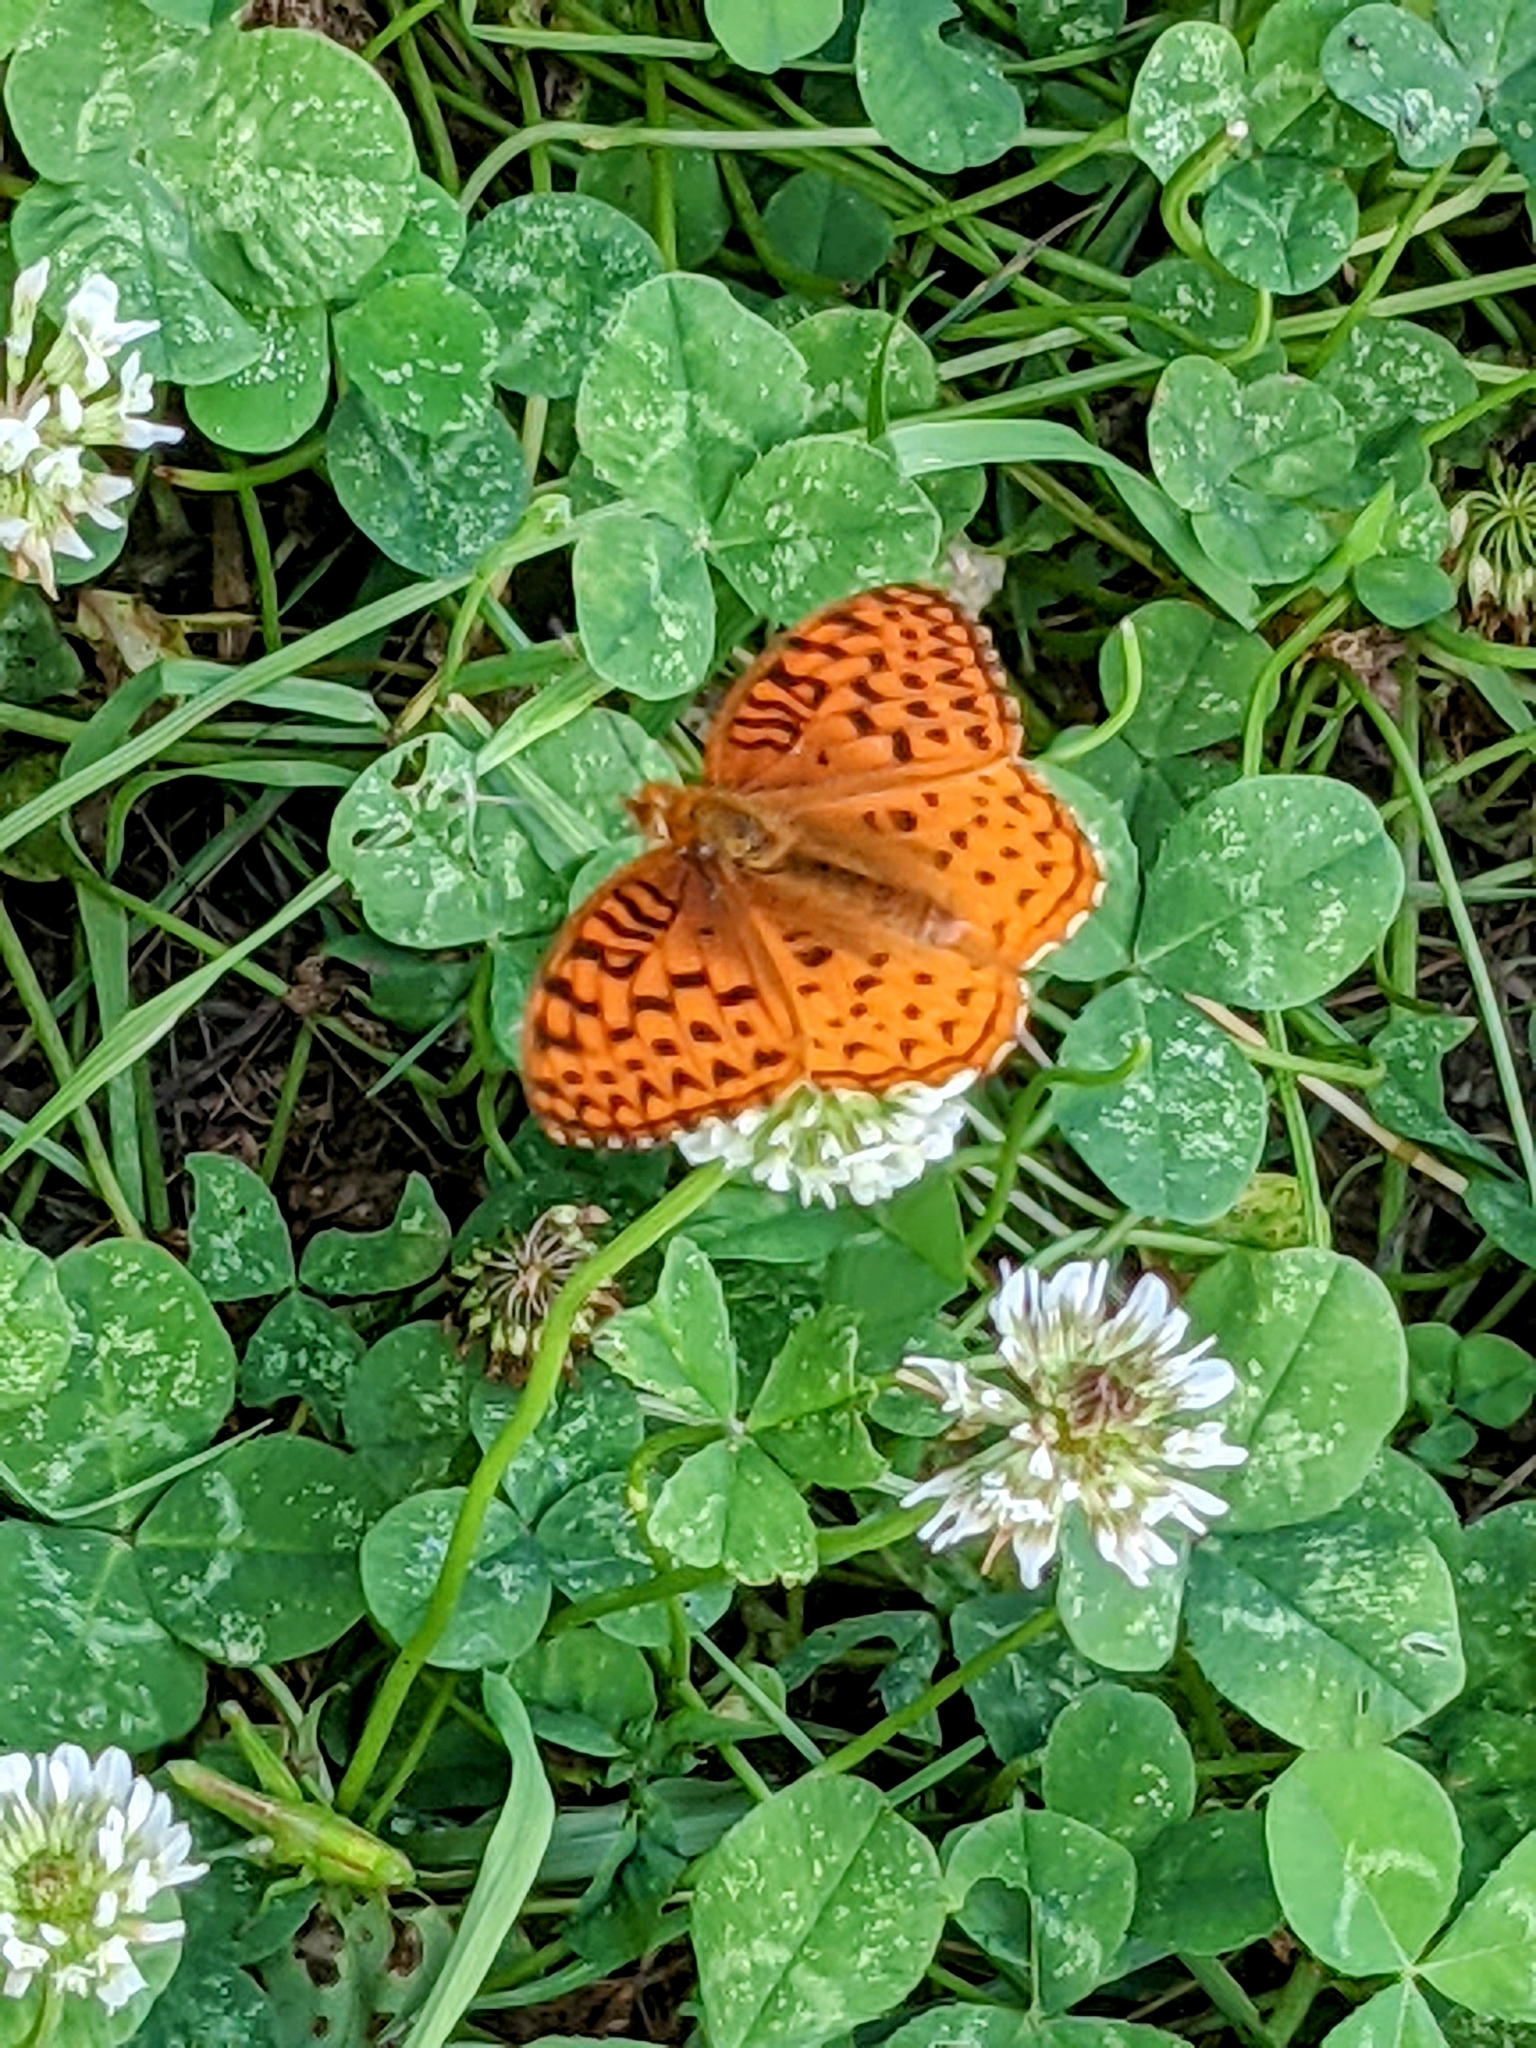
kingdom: Animalia
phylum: Arthropoda
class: Insecta
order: Lepidoptera
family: Nymphalidae
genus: Speyeria
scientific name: Speyeria aphrodite
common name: Aphrodite friitllary
